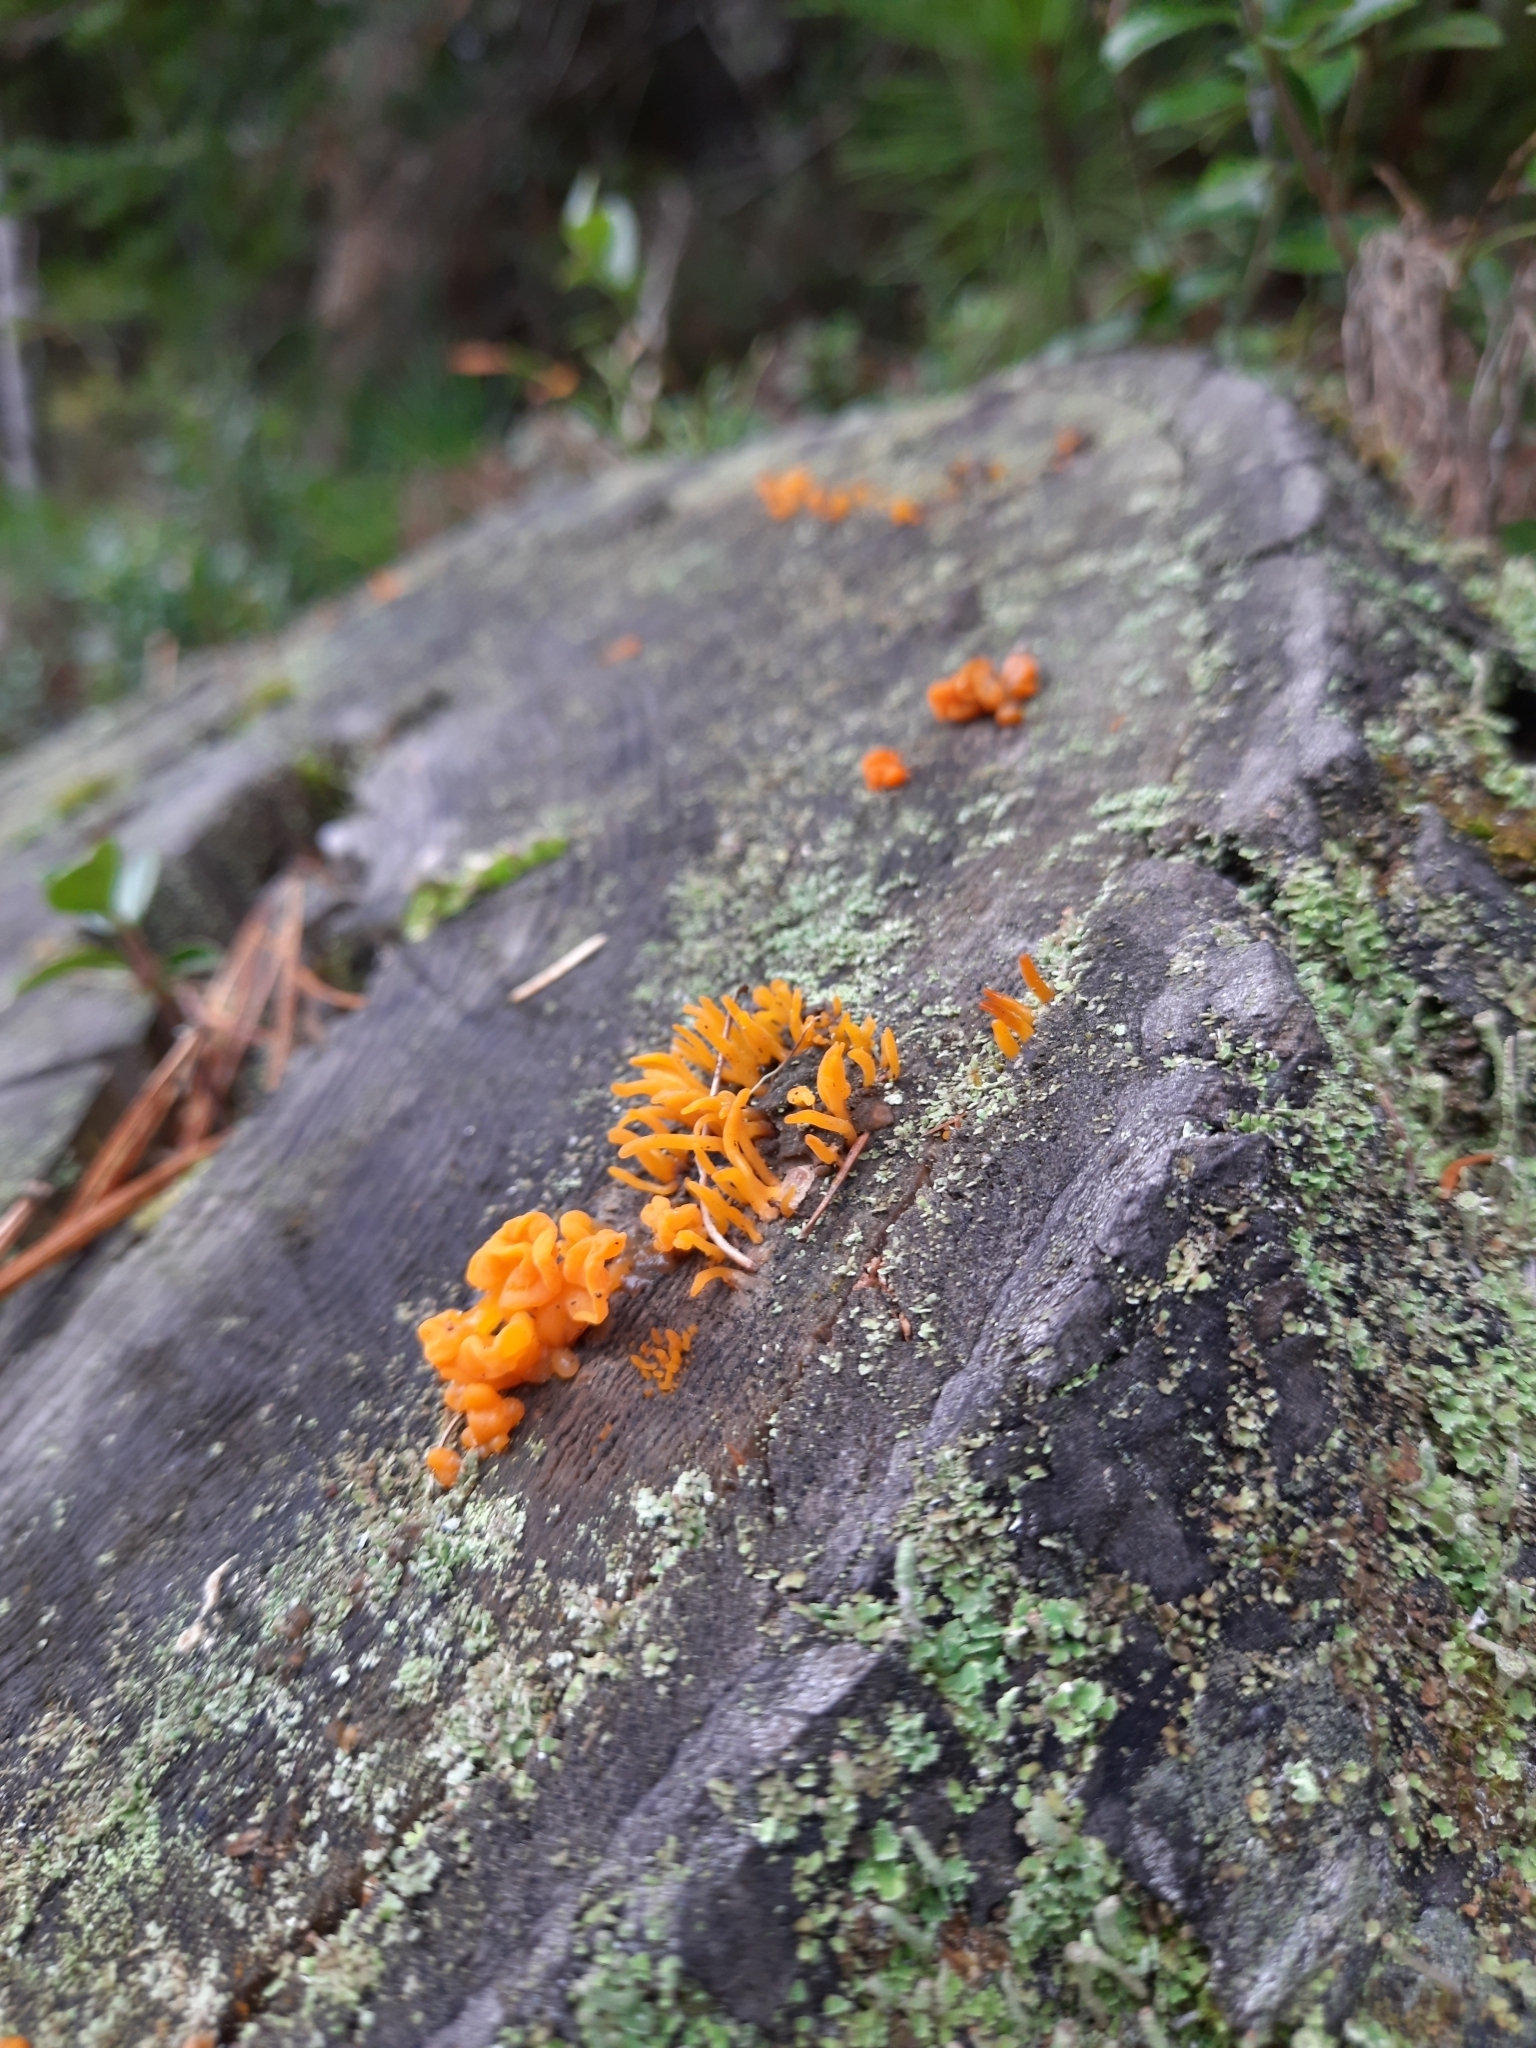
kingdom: Fungi
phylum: Basidiomycota
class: Dacrymycetes
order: Dacrymycetales
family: Dacrymycetaceae
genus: Dacrymyces
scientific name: Dacrymyces chrysospermus
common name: Orange jelly spot
